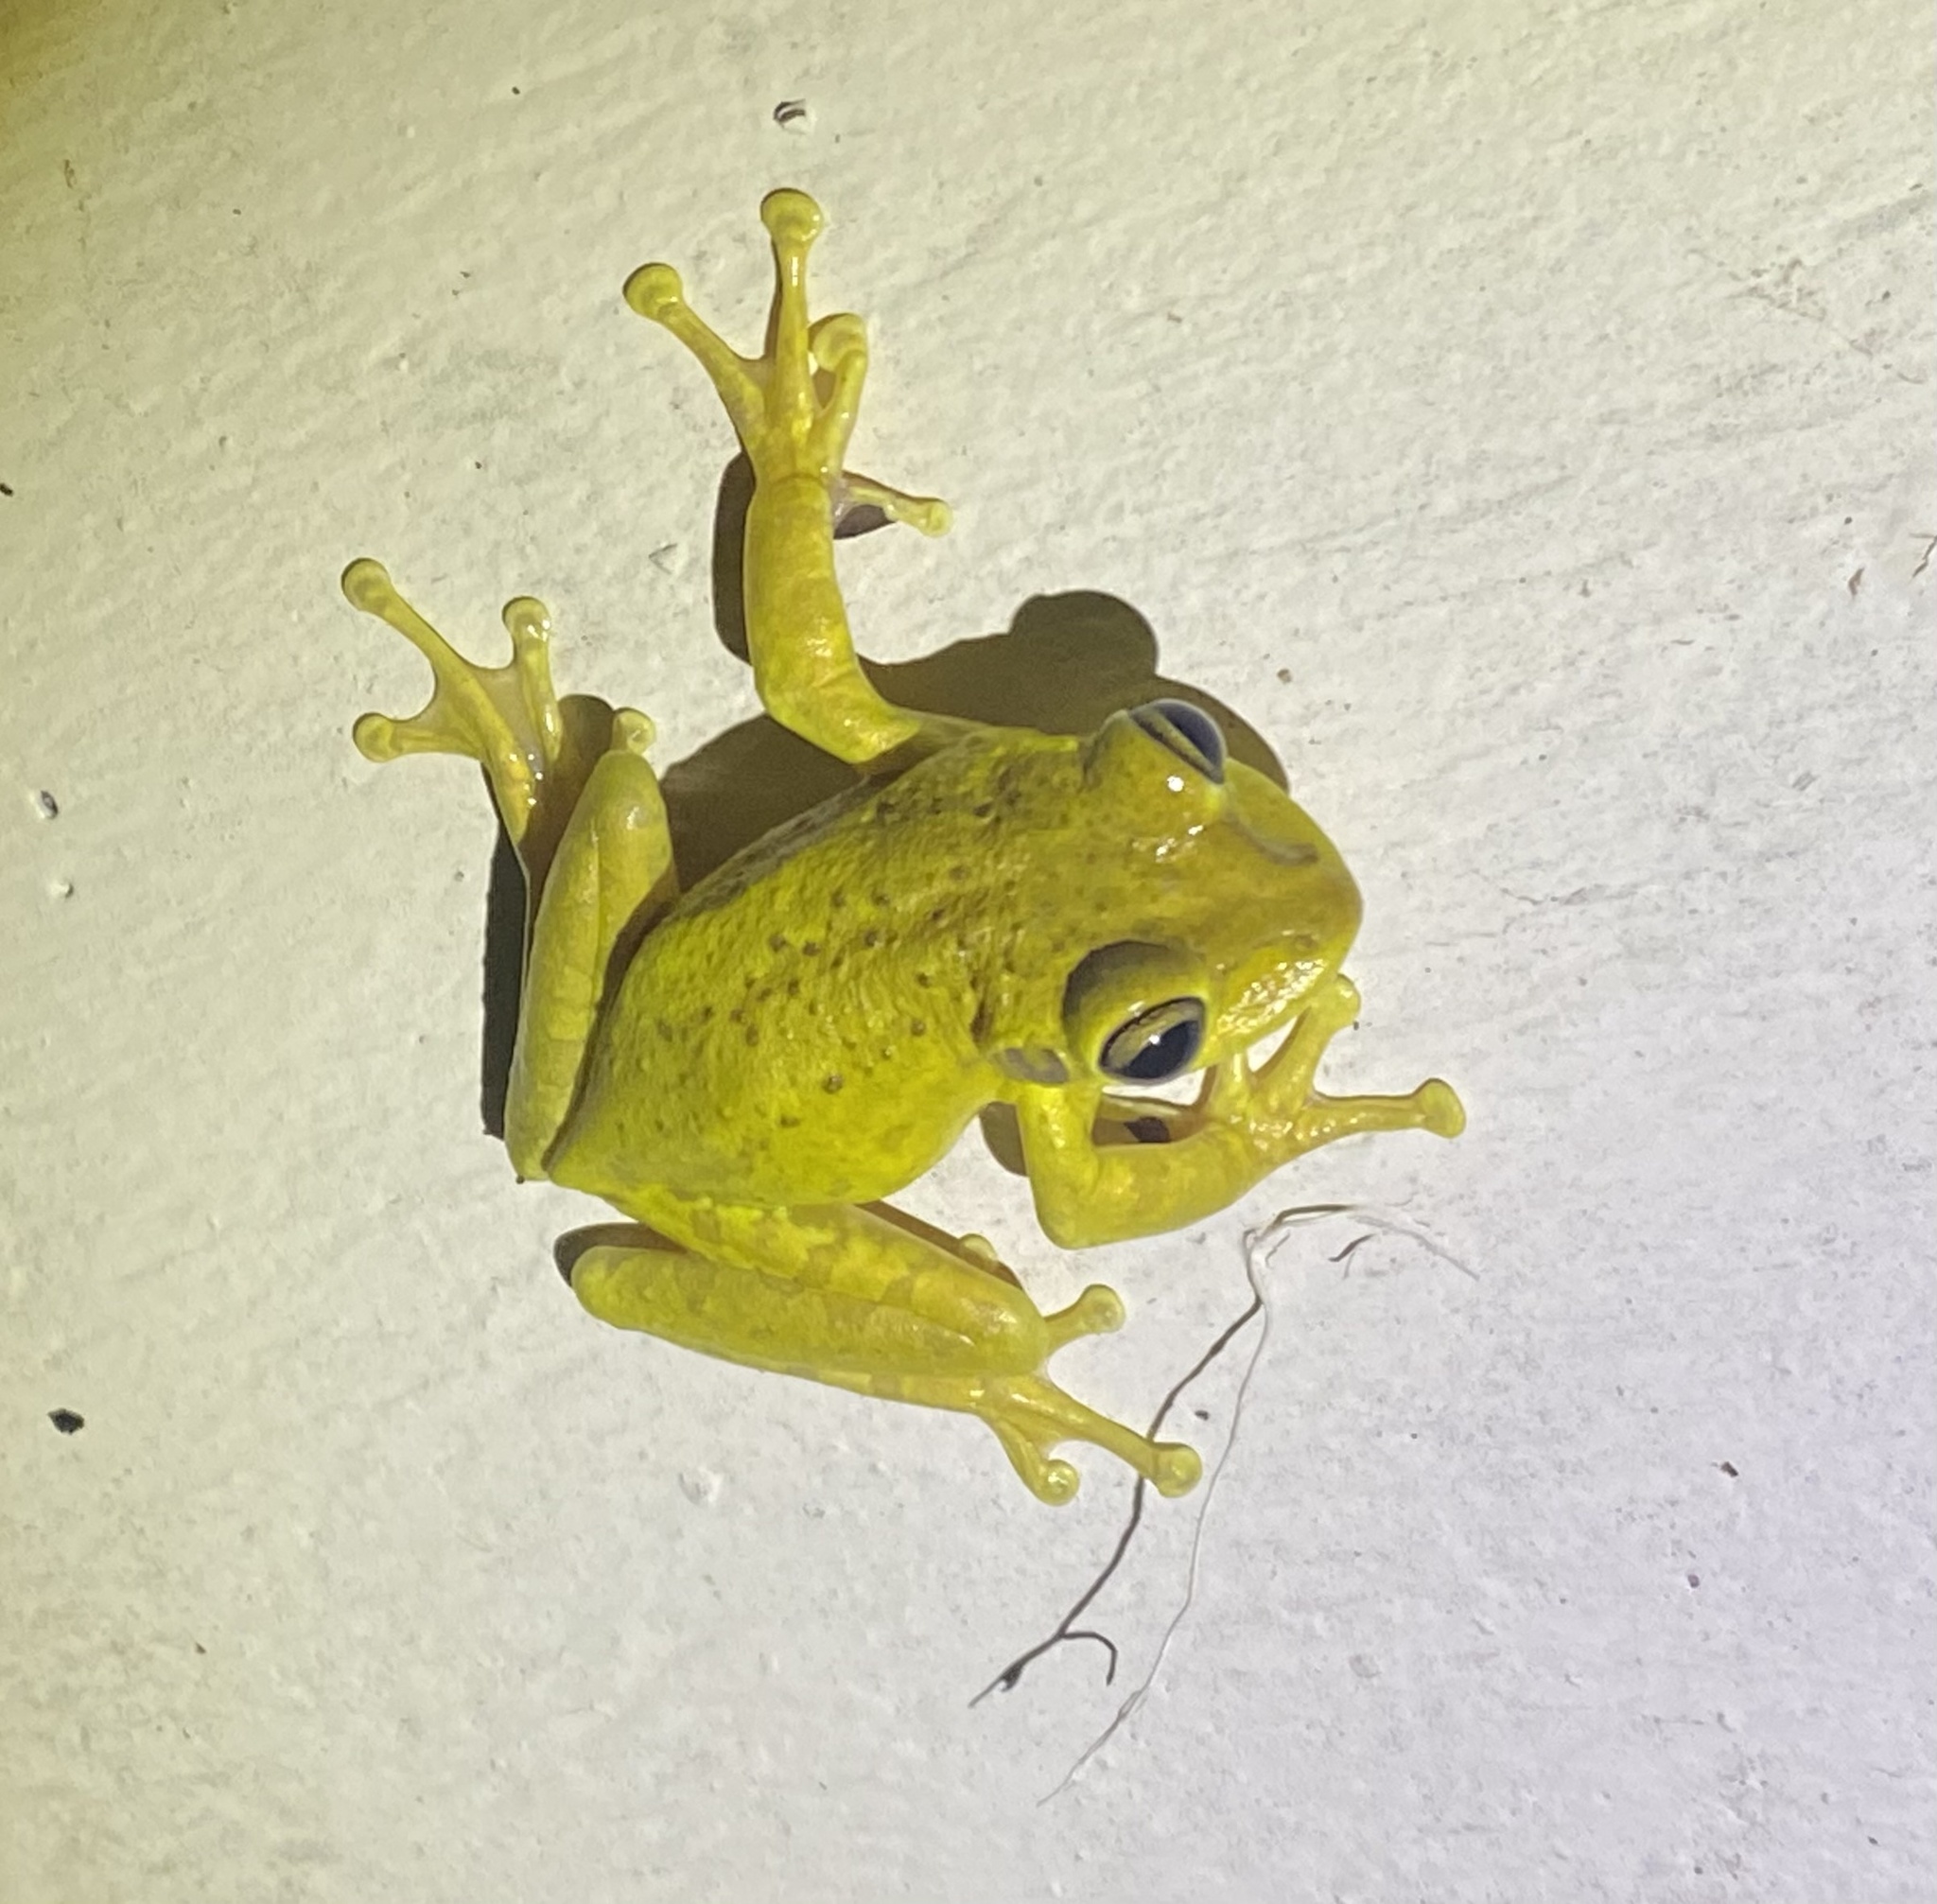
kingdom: Animalia
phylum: Chordata
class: Amphibia
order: Anura
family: Hylidae
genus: Osteopilus
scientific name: Osteopilus septentrionalis
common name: Cuban treefrog
